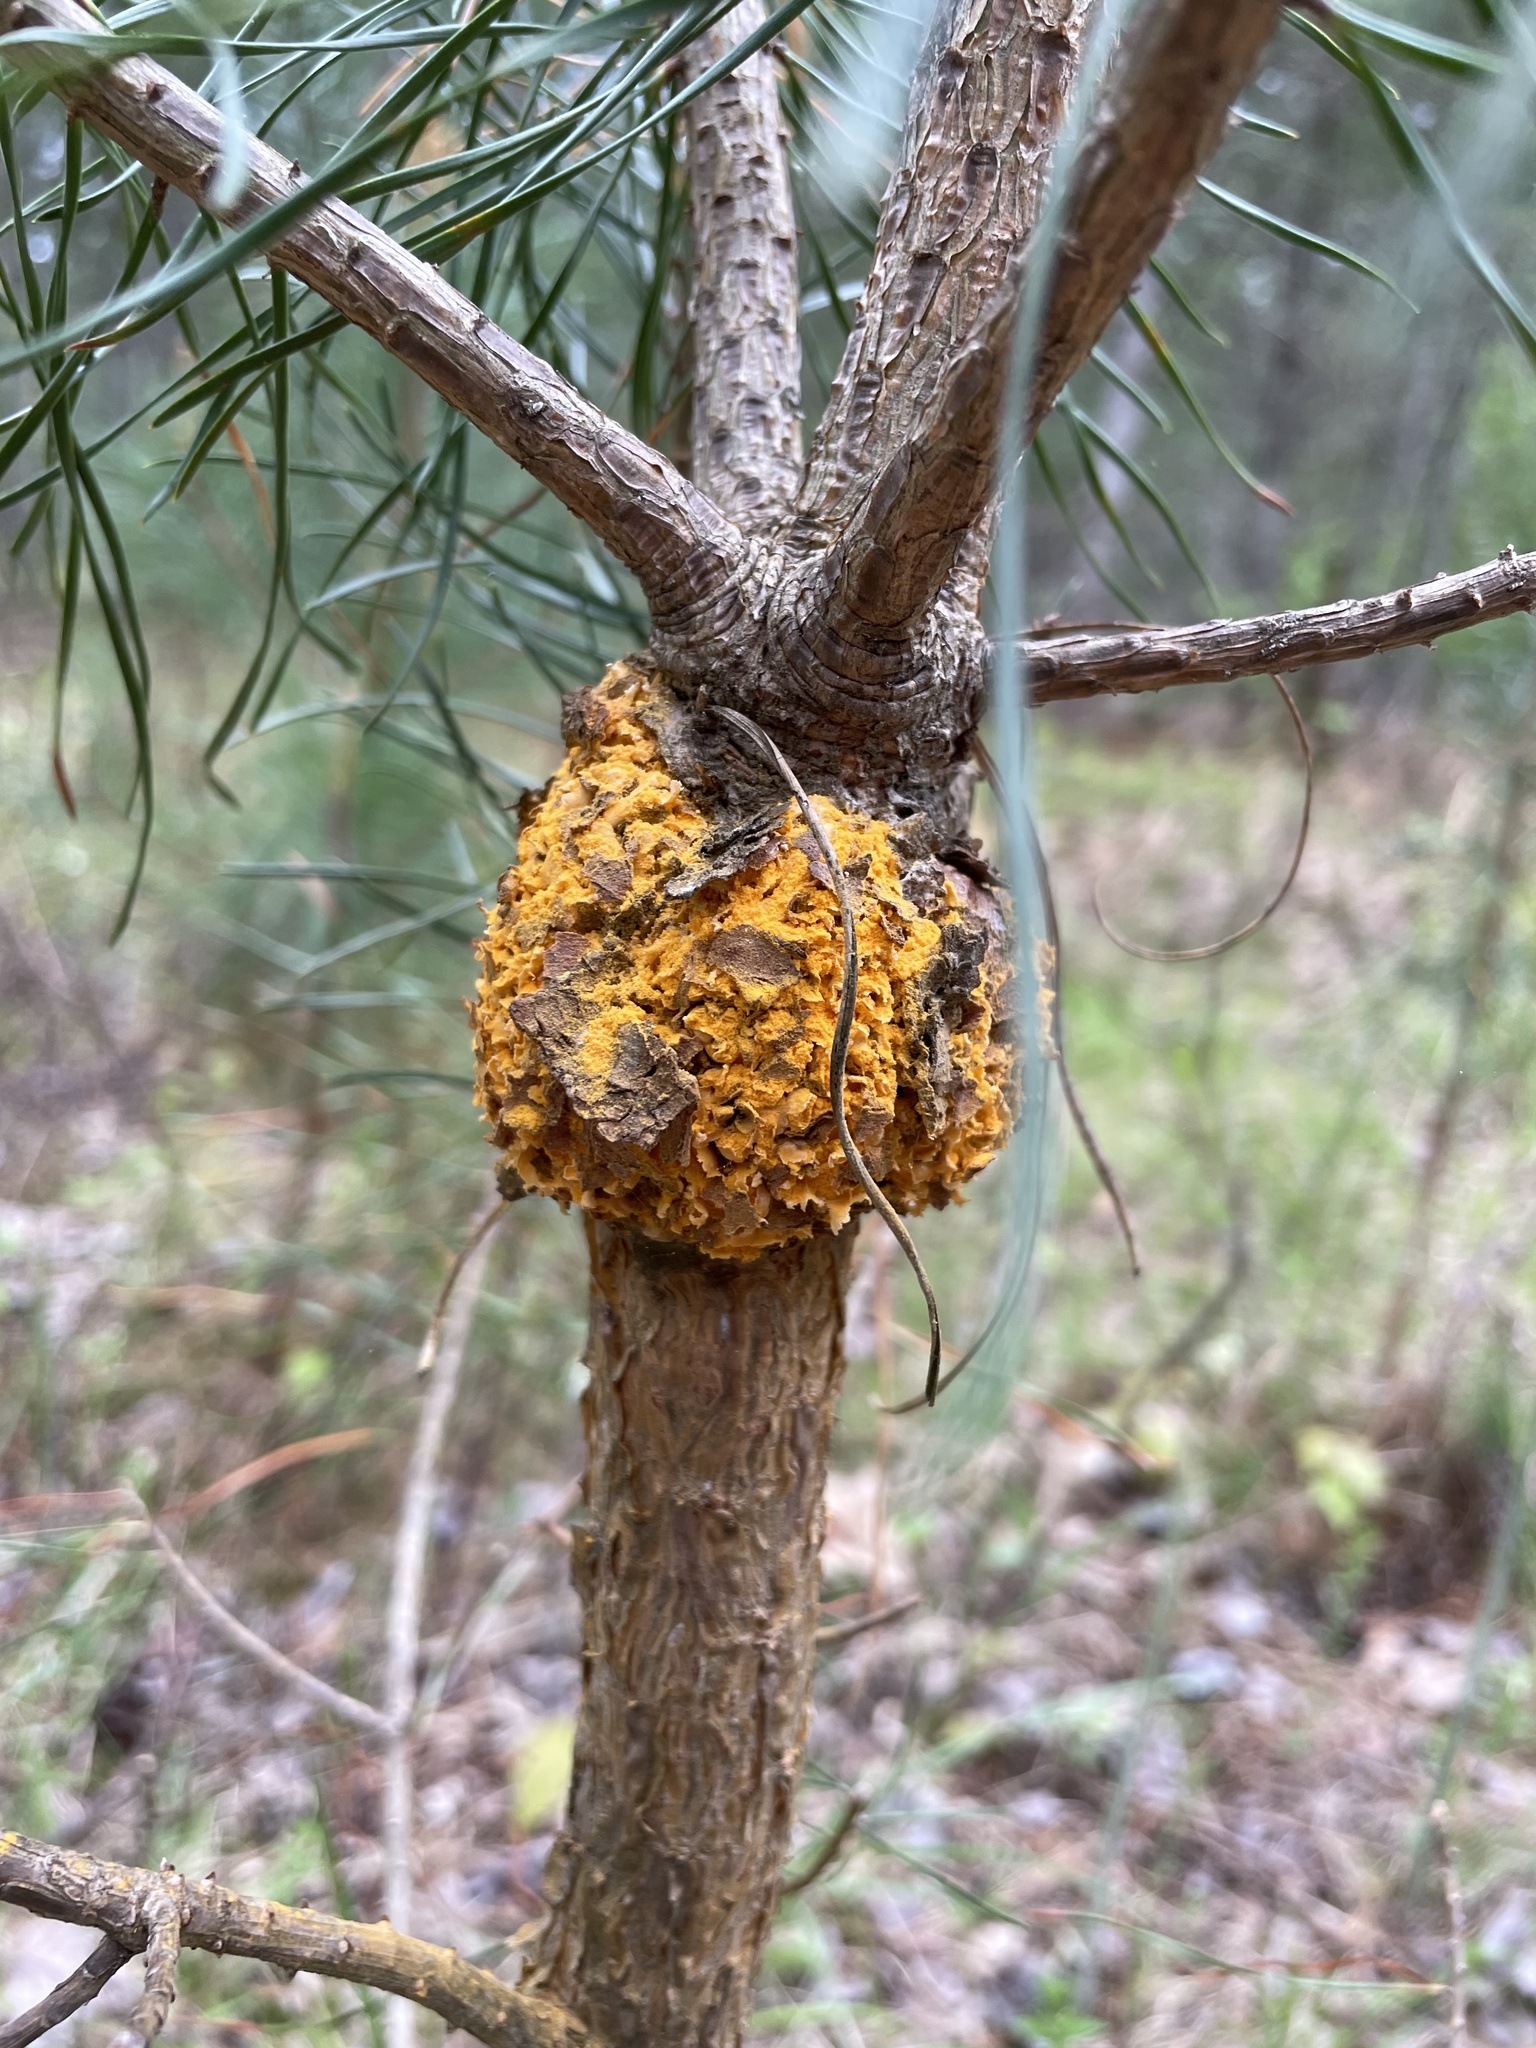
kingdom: Fungi
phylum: Basidiomycota
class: Pucciniomycetes
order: Pucciniales
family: Cronartiaceae
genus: Cronartium
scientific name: Cronartium harknessii
